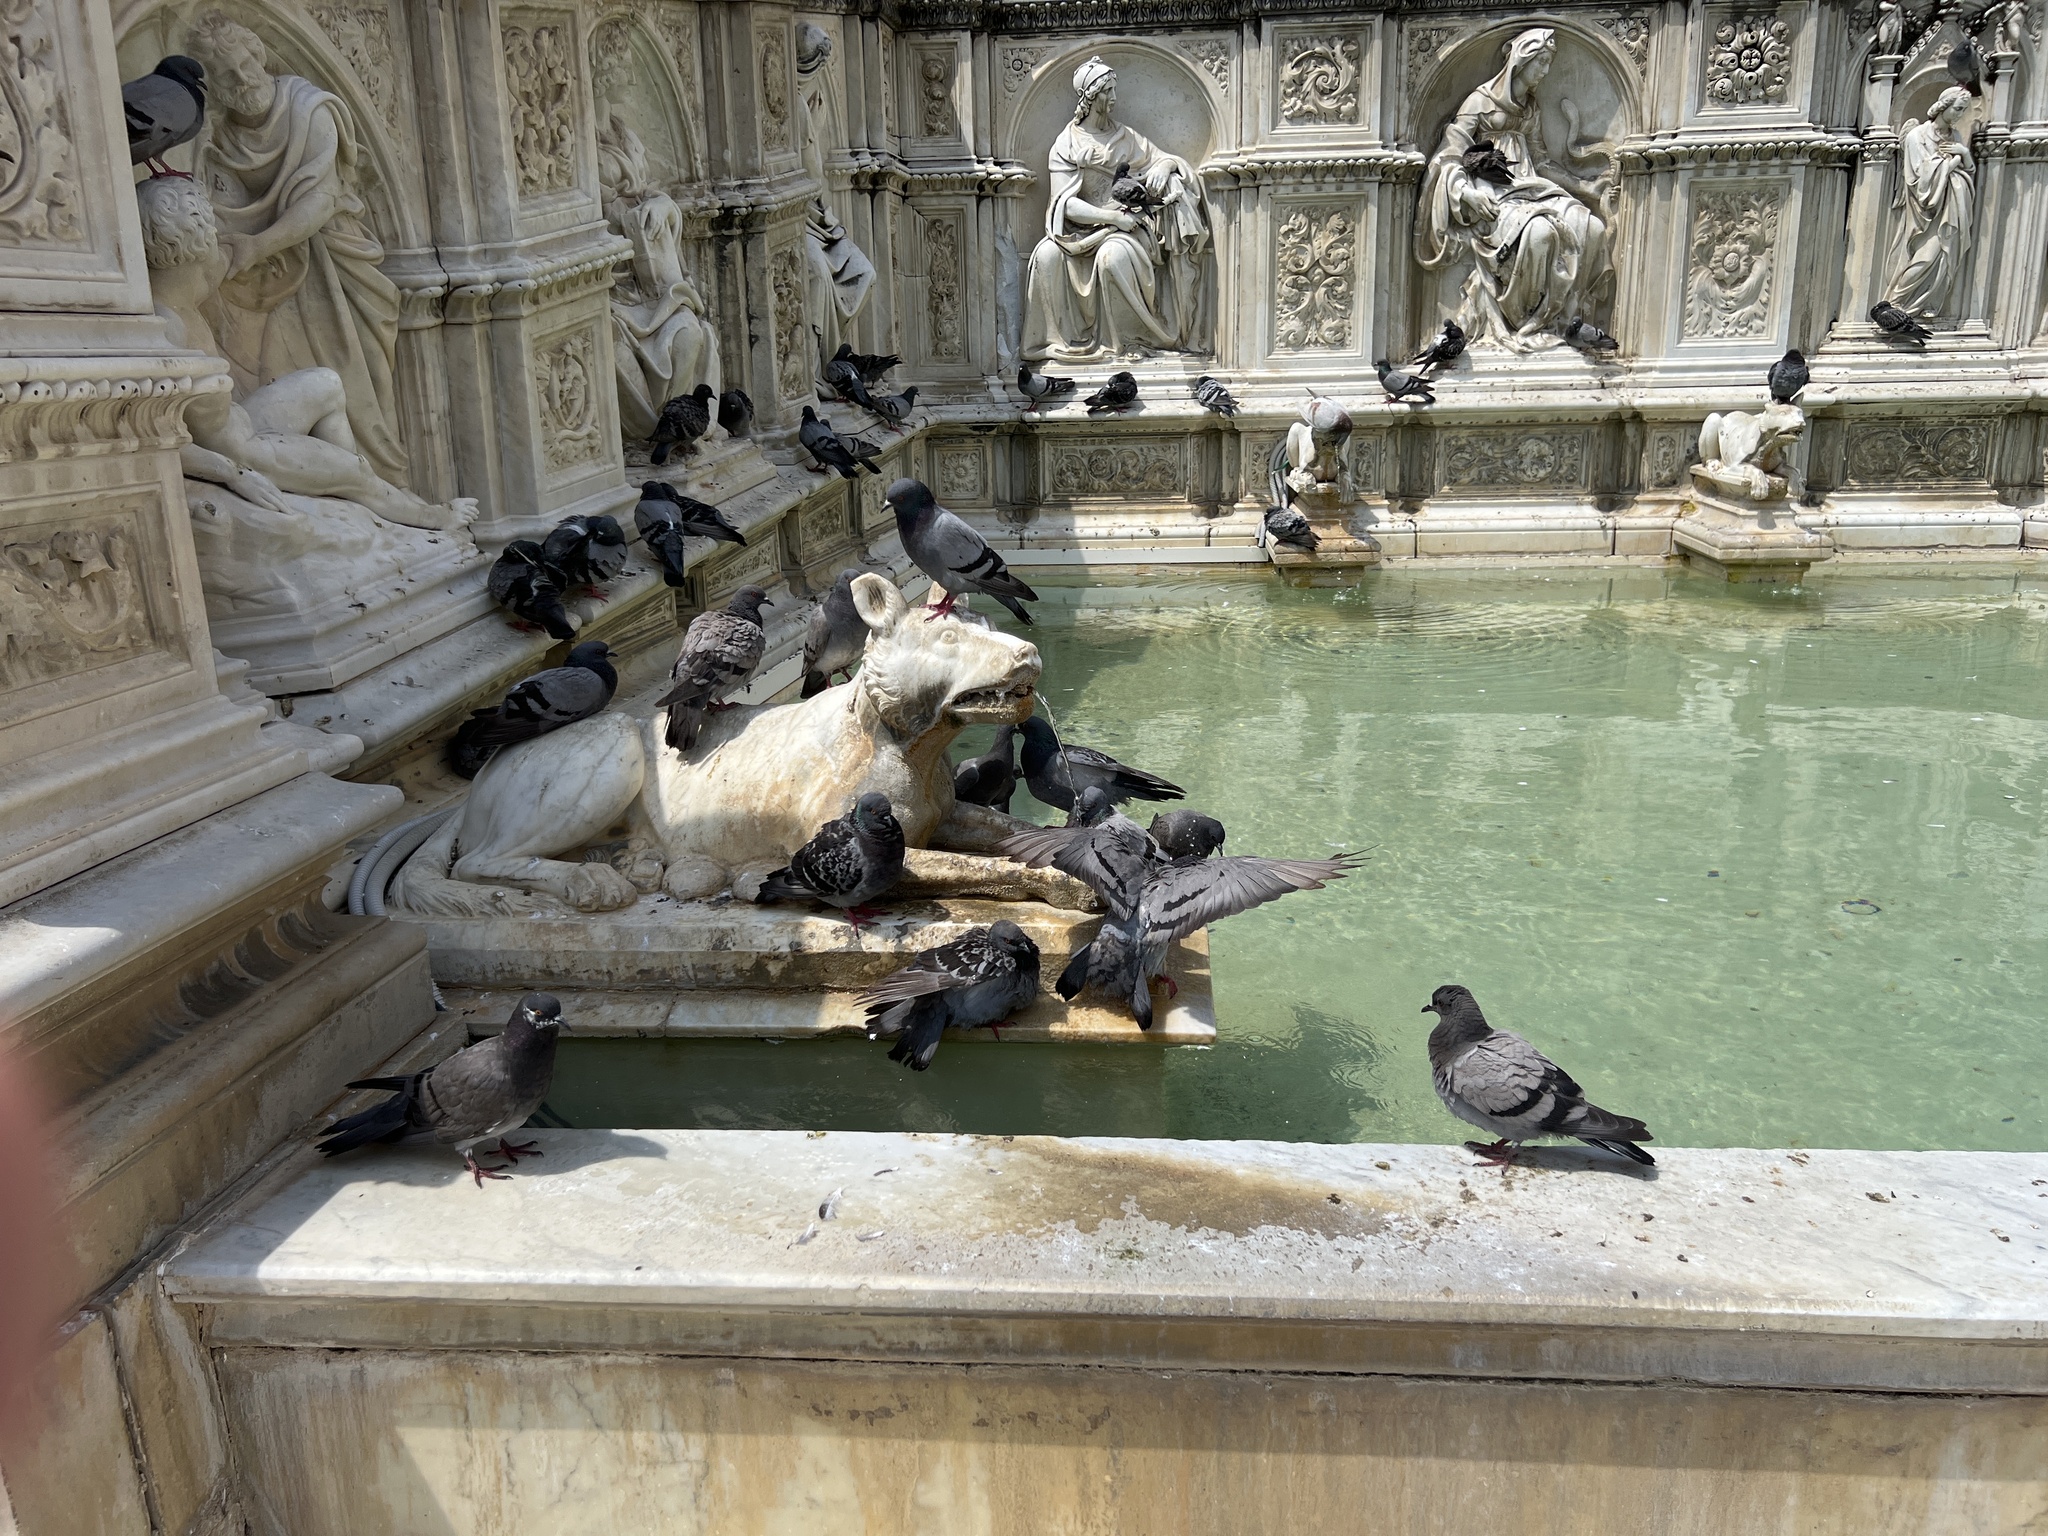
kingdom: Animalia
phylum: Chordata
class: Aves
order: Columbiformes
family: Columbidae
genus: Columba
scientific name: Columba livia
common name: Rock pigeon
